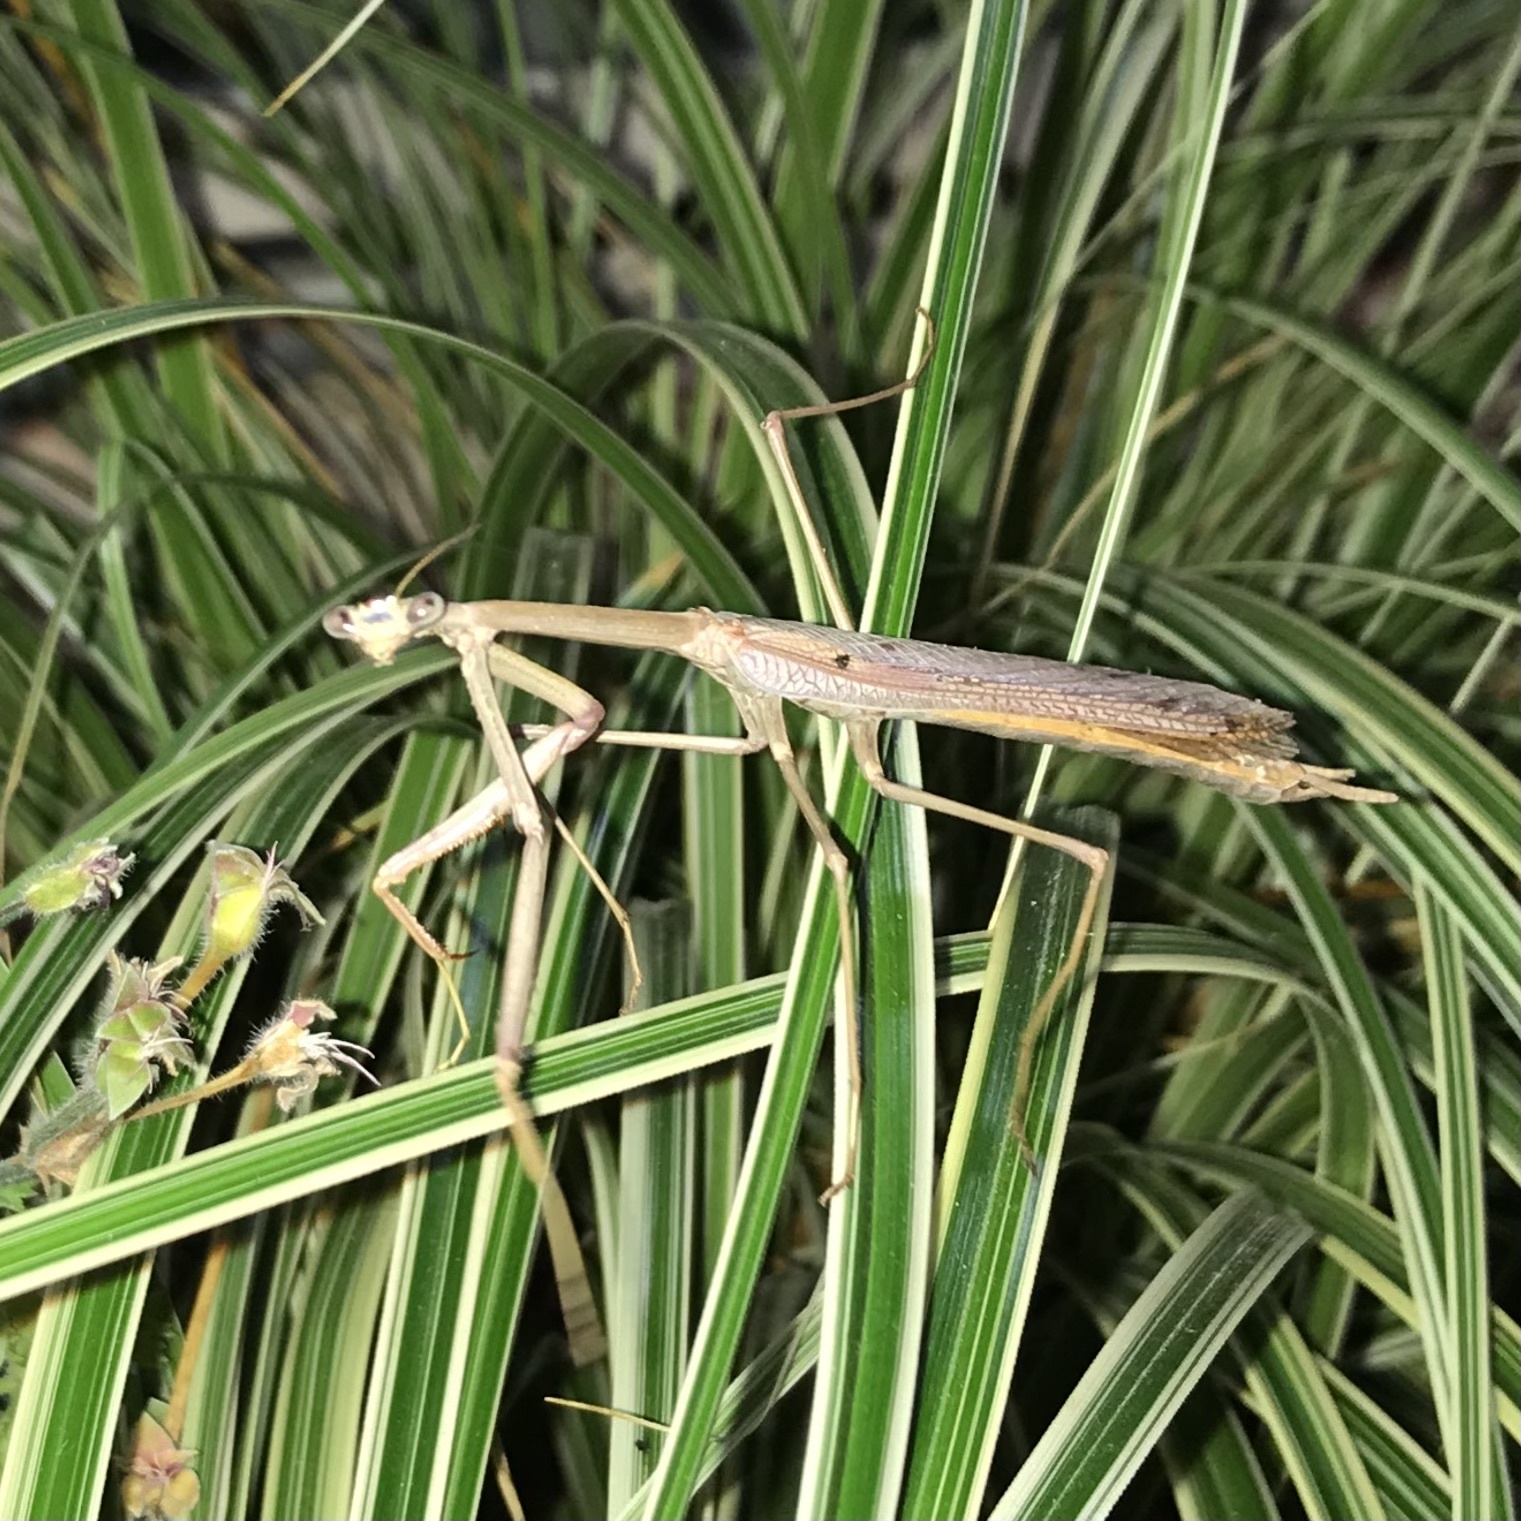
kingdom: Animalia
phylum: Arthropoda
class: Insecta
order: Mantodea
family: Mantidae
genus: Archimantis
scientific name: Archimantis latistyla
